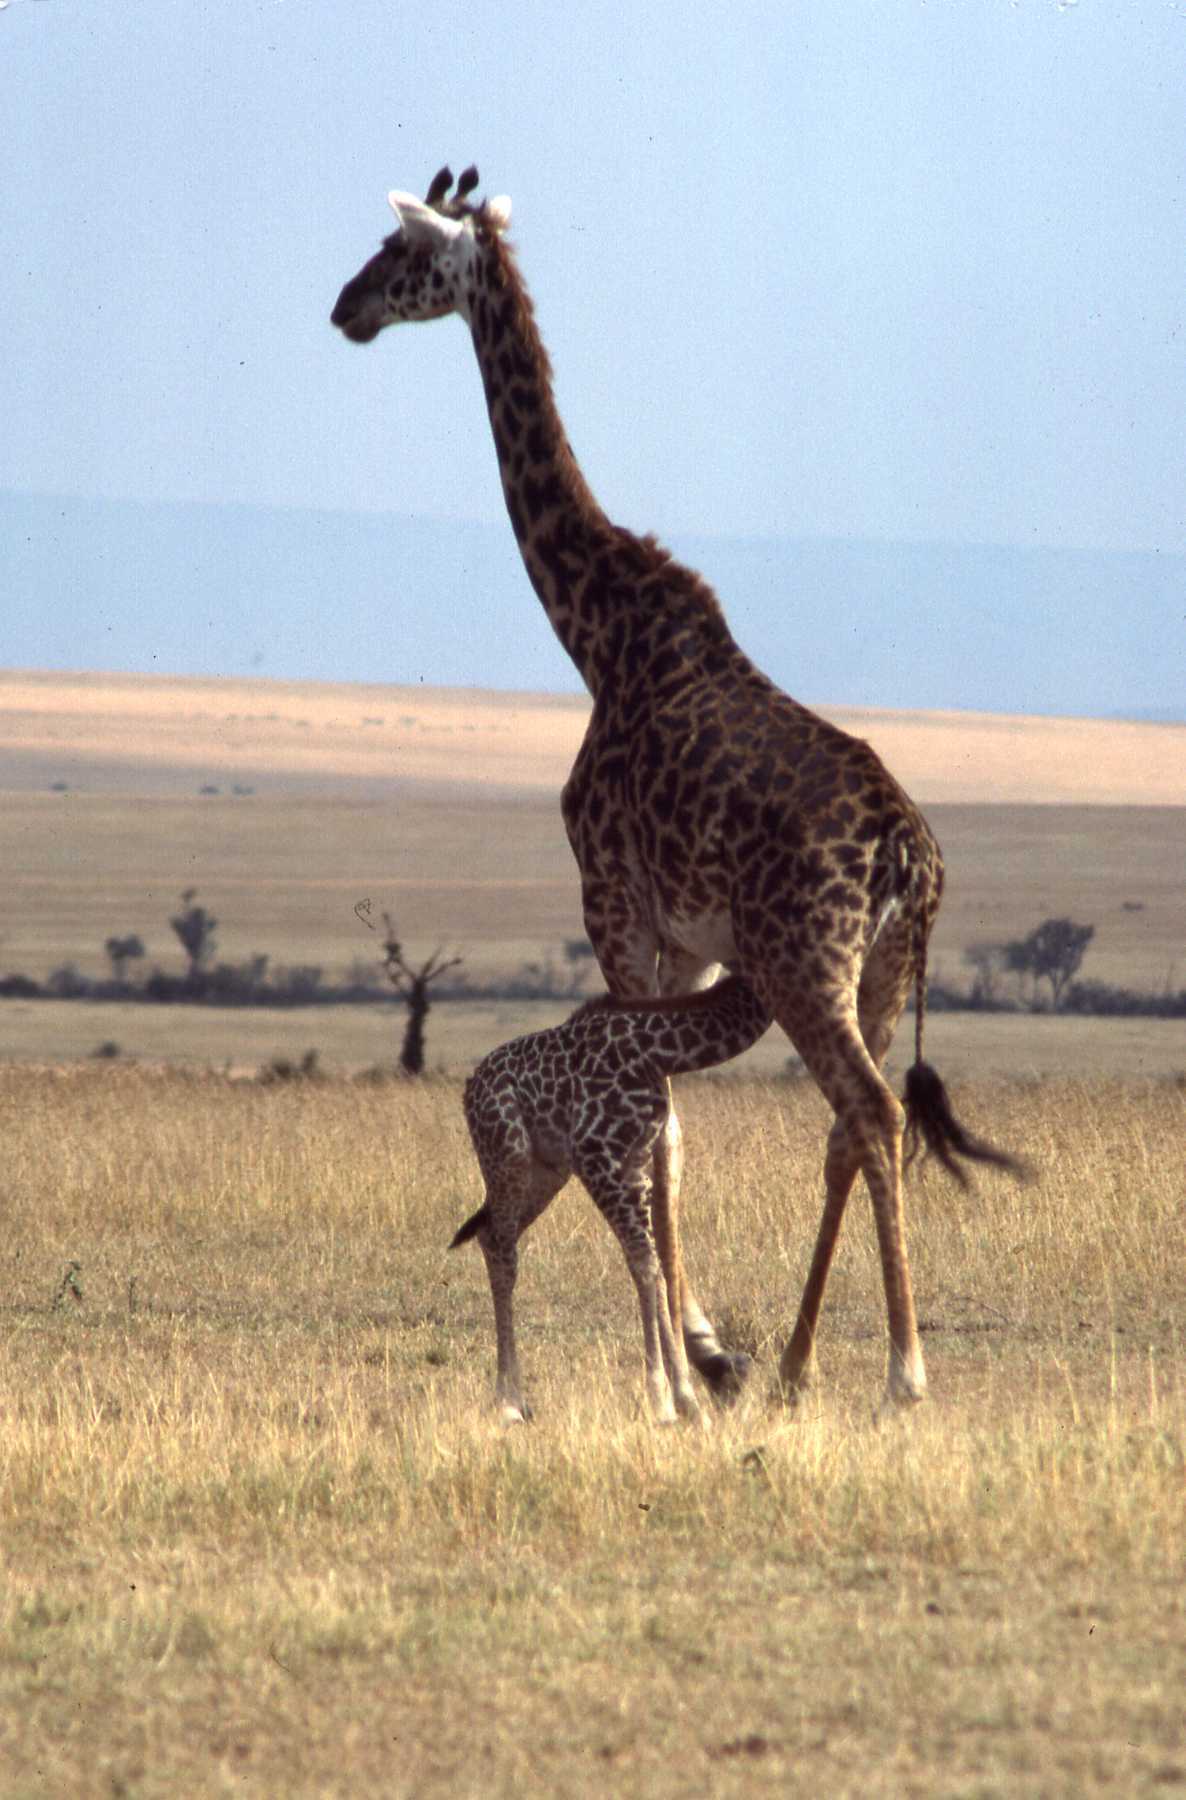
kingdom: Animalia
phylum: Chordata
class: Mammalia
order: Artiodactyla
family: Giraffidae
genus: Giraffa
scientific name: Giraffa tippelskirchi
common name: Masai giraffe
